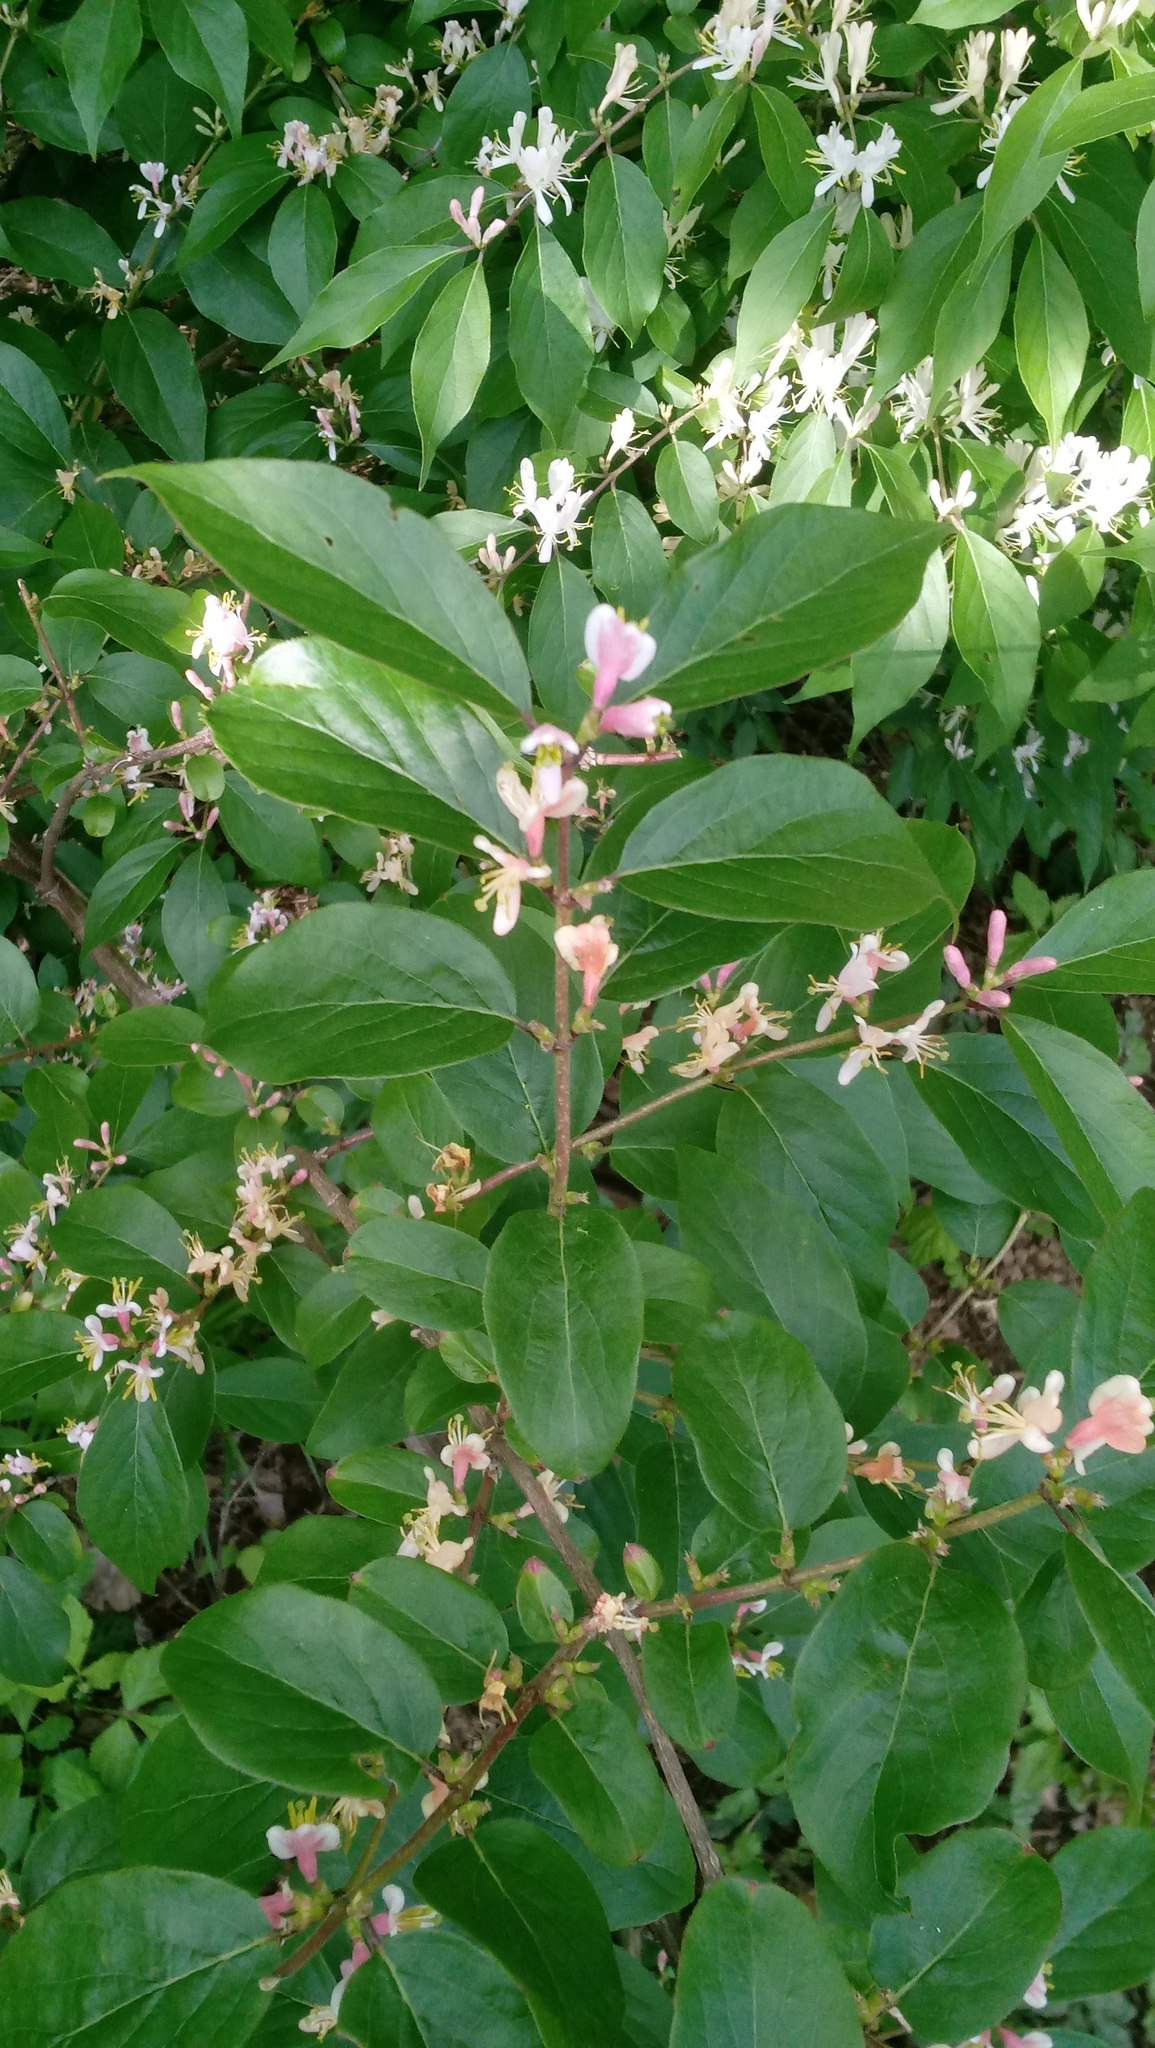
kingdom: Plantae
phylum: Tracheophyta
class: Magnoliopsida
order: Dipsacales
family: Caprifoliaceae
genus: Lonicera
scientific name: Lonicera maackii
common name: Amur honeysuckle
